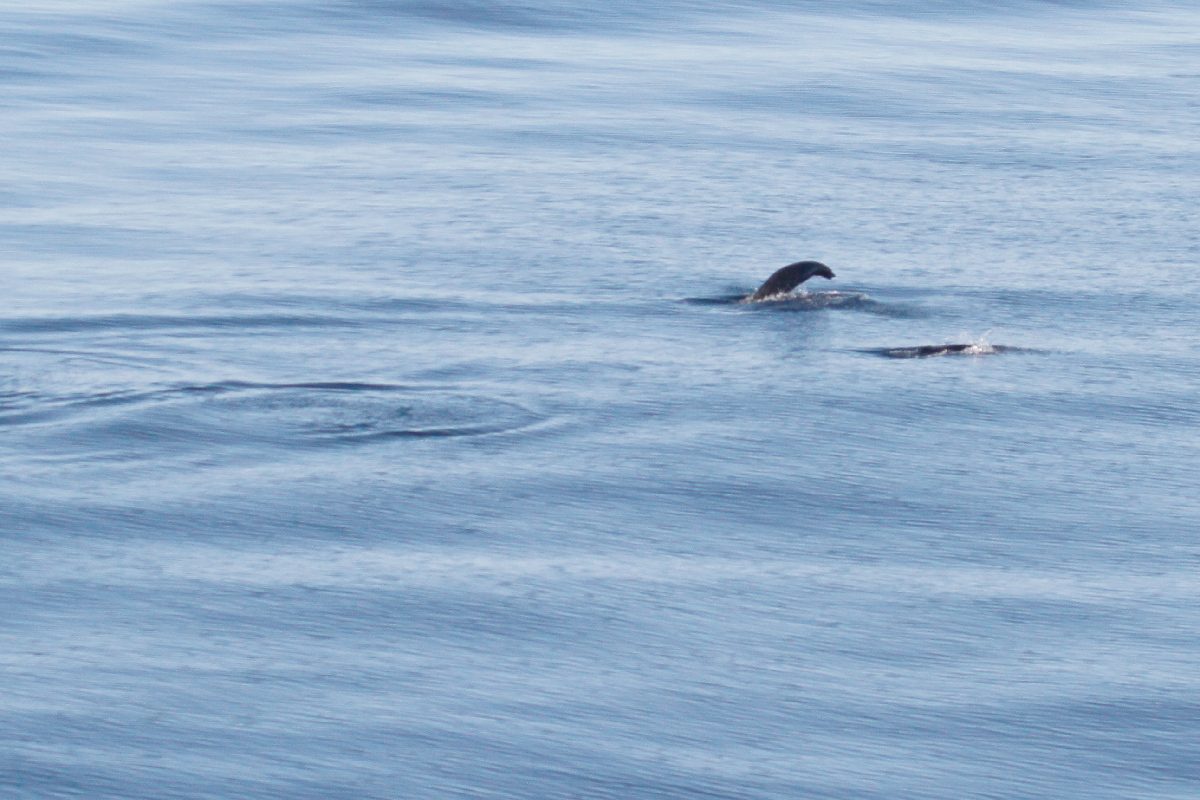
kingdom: Animalia
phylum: Chordata
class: Mammalia
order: Carnivora
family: Otariidae
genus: Arctocephalus
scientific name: Arctocephalus philippii
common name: Juan fernández fur seal
